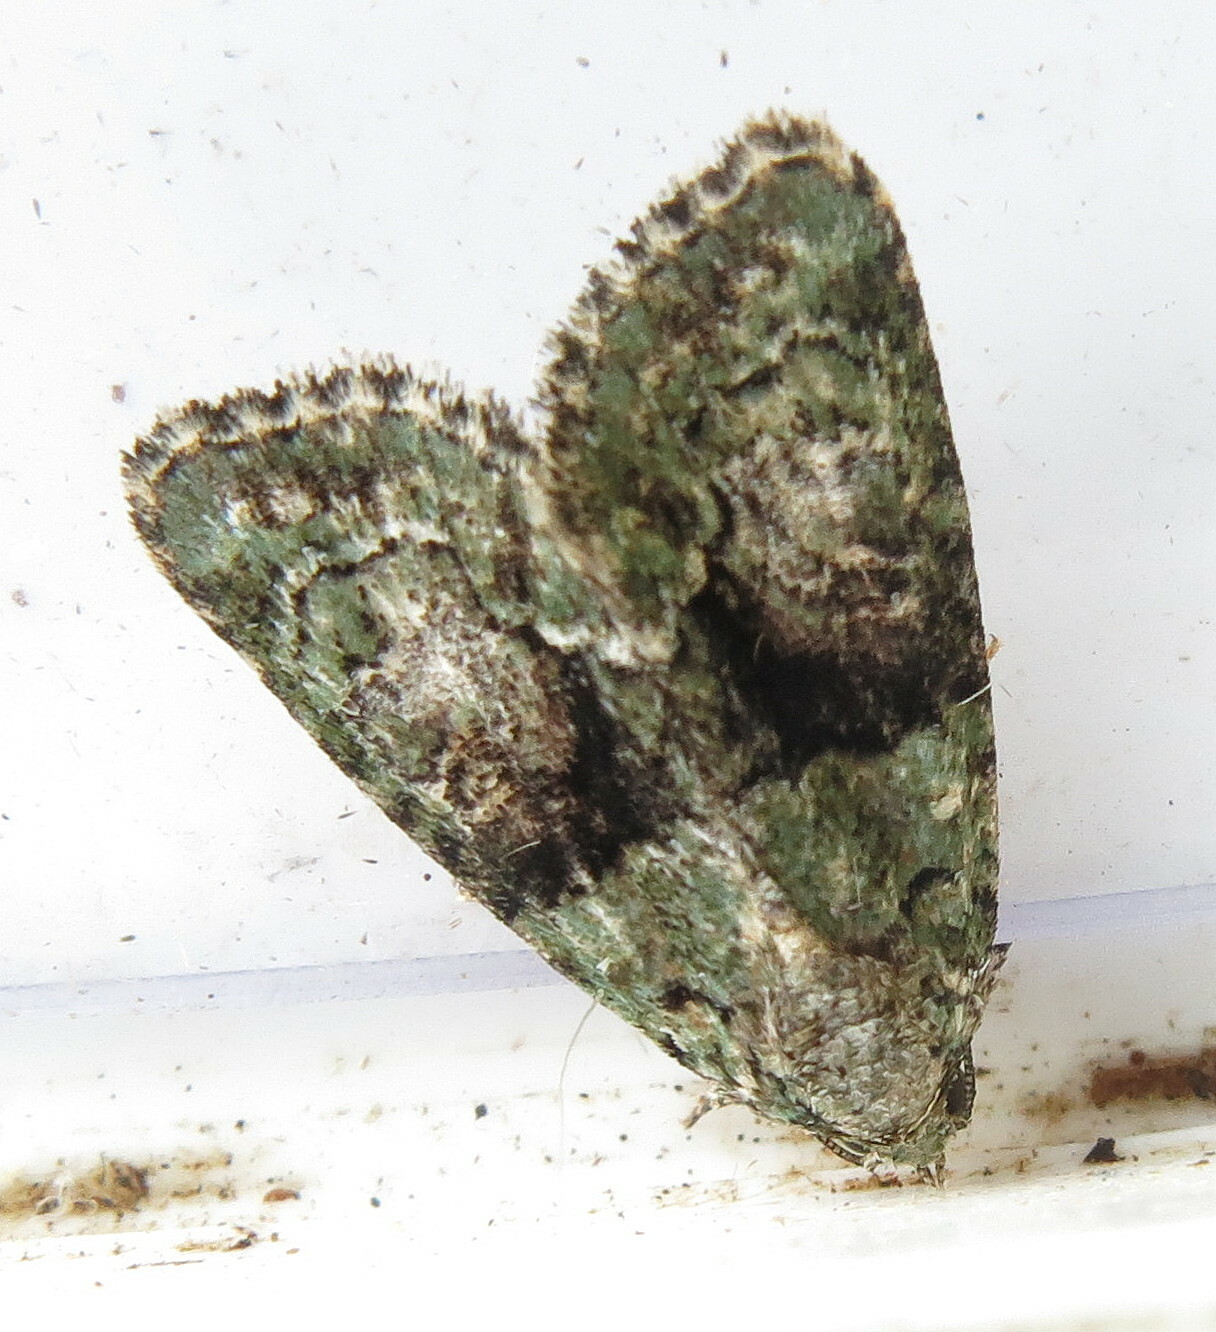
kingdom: Animalia
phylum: Arthropoda
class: Insecta
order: Lepidoptera
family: Noctuidae
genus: Cryphia
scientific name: Cryphia algae
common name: Tree-lichen beauty
